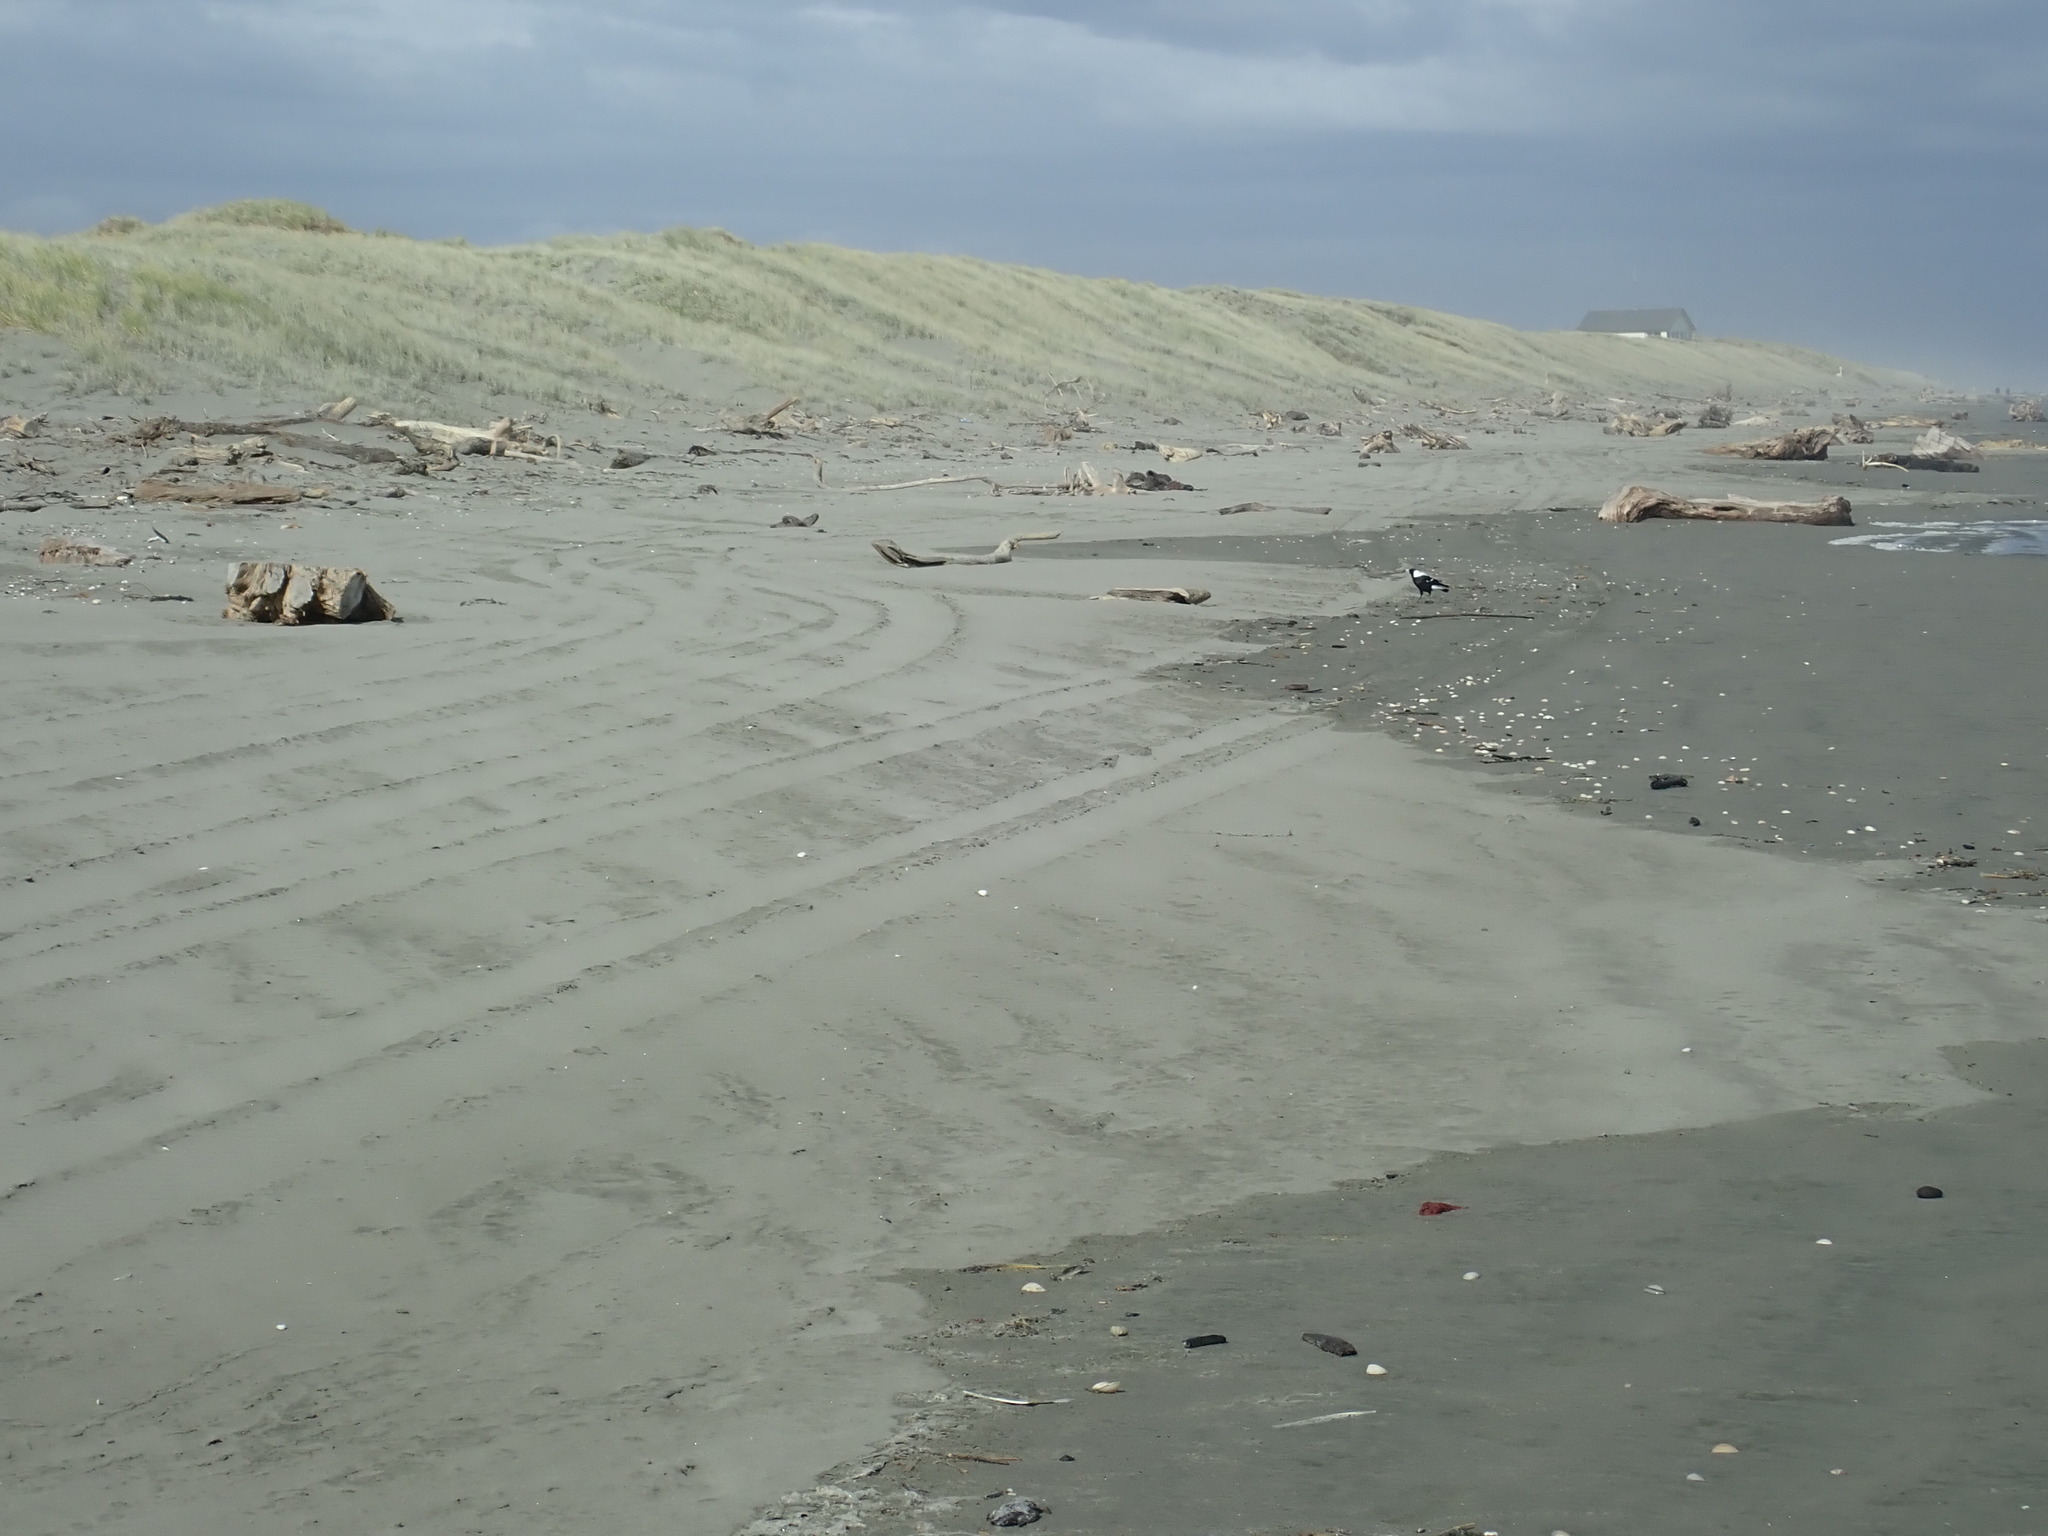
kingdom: Animalia
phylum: Chordata
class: Aves
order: Passeriformes
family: Cracticidae
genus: Gymnorhina
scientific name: Gymnorhina tibicen
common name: Australian magpie
